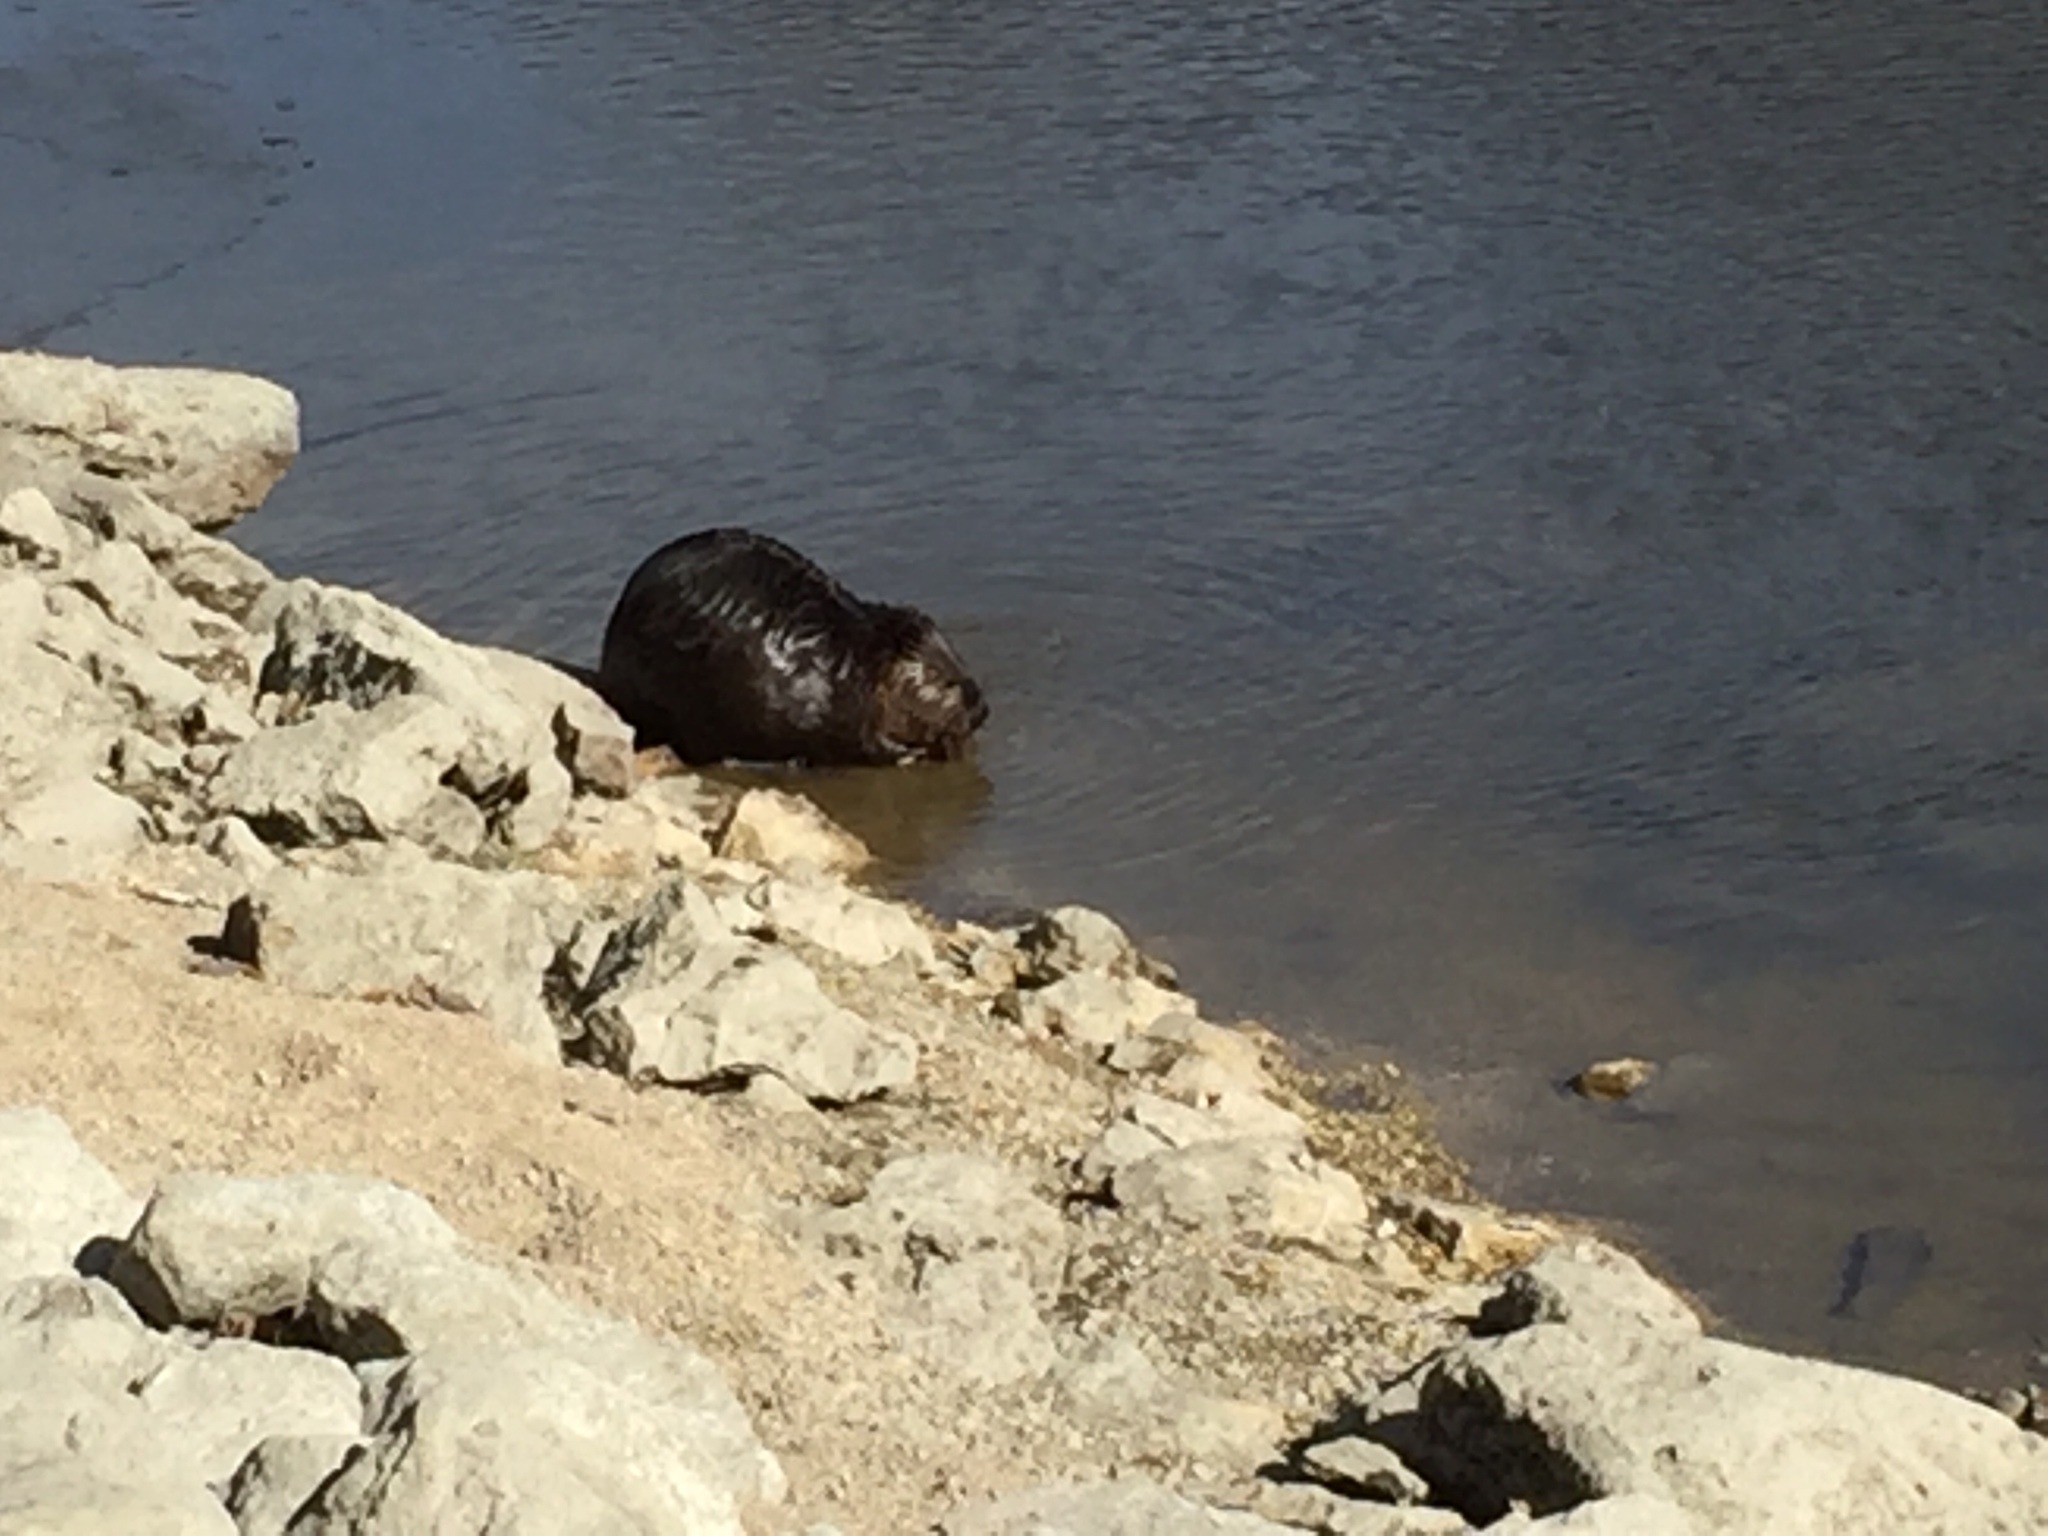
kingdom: Animalia
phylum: Chordata
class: Mammalia
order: Rodentia
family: Castoridae
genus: Castor
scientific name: Castor canadensis
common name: American beaver
